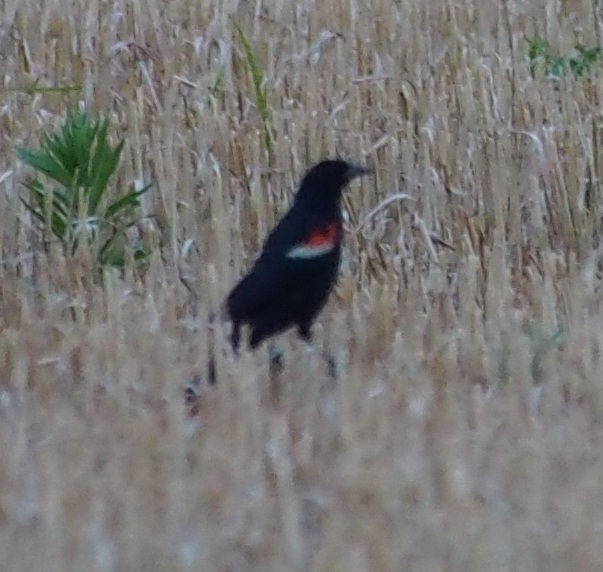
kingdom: Animalia
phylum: Chordata
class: Aves
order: Passeriformes
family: Icteridae
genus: Agelaius
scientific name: Agelaius phoeniceus
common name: Red-winged blackbird
